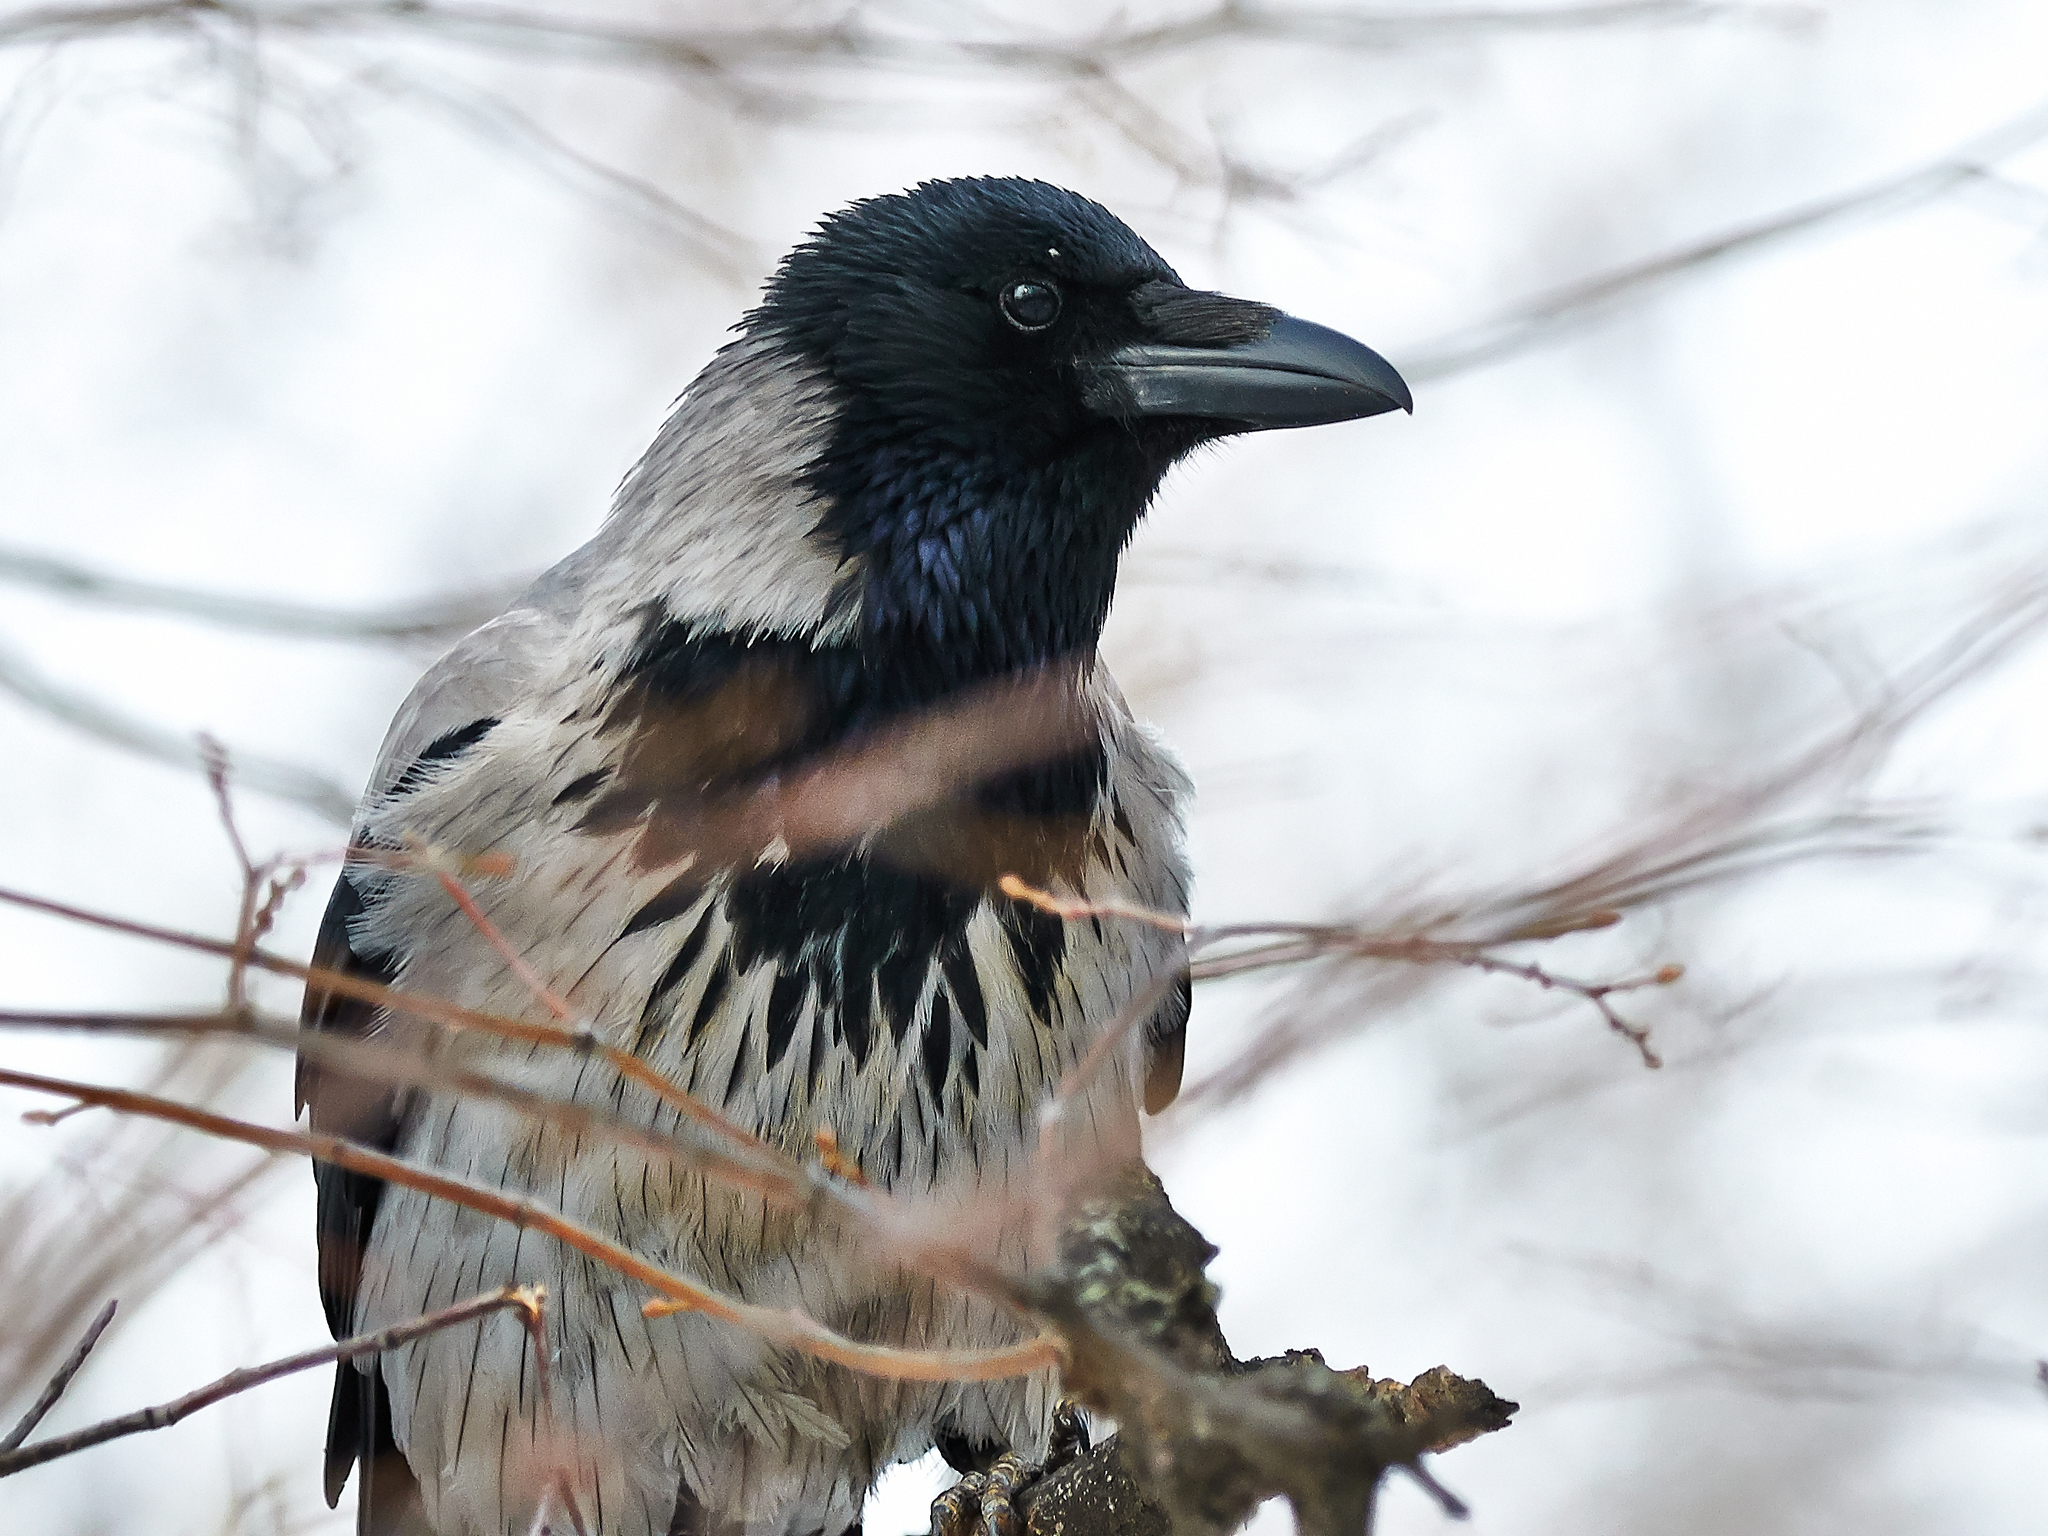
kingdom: Animalia
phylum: Chordata
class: Aves
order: Passeriformes
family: Corvidae
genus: Corvus
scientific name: Corvus cornix
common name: Hooded crow
